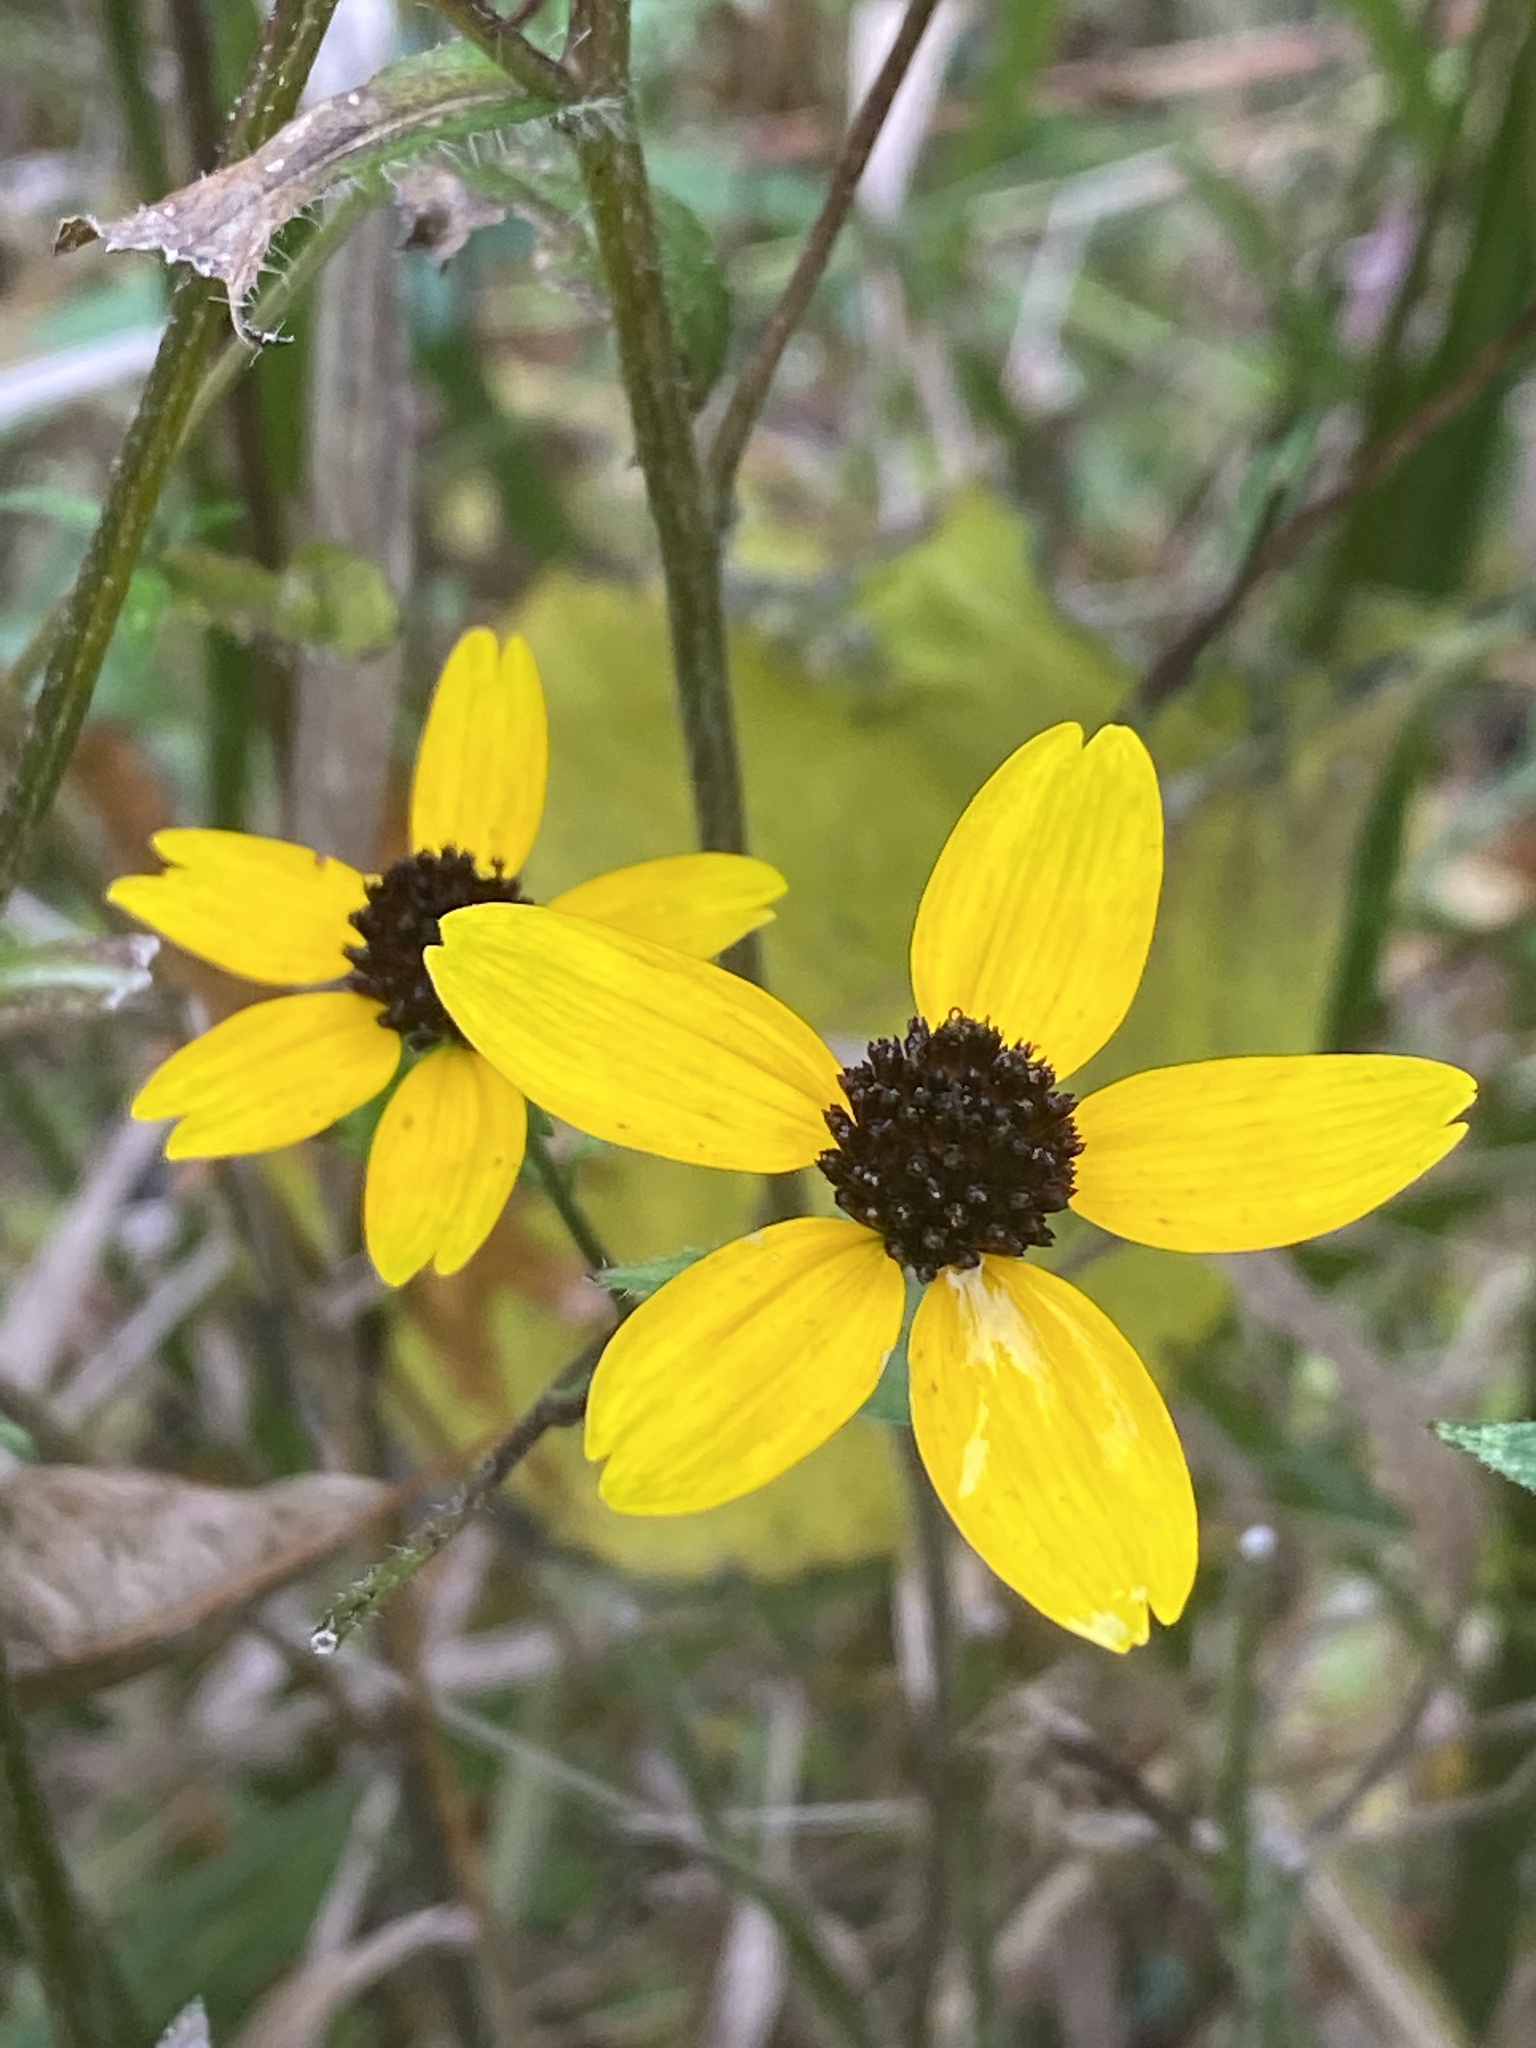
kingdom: Plantae
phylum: Tracheophyta
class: Magnoliopsida
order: Asterales
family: Asteraceae
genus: Rudbeckia
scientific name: Rudbeckia triloba
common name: Thin-leaved coneflower
